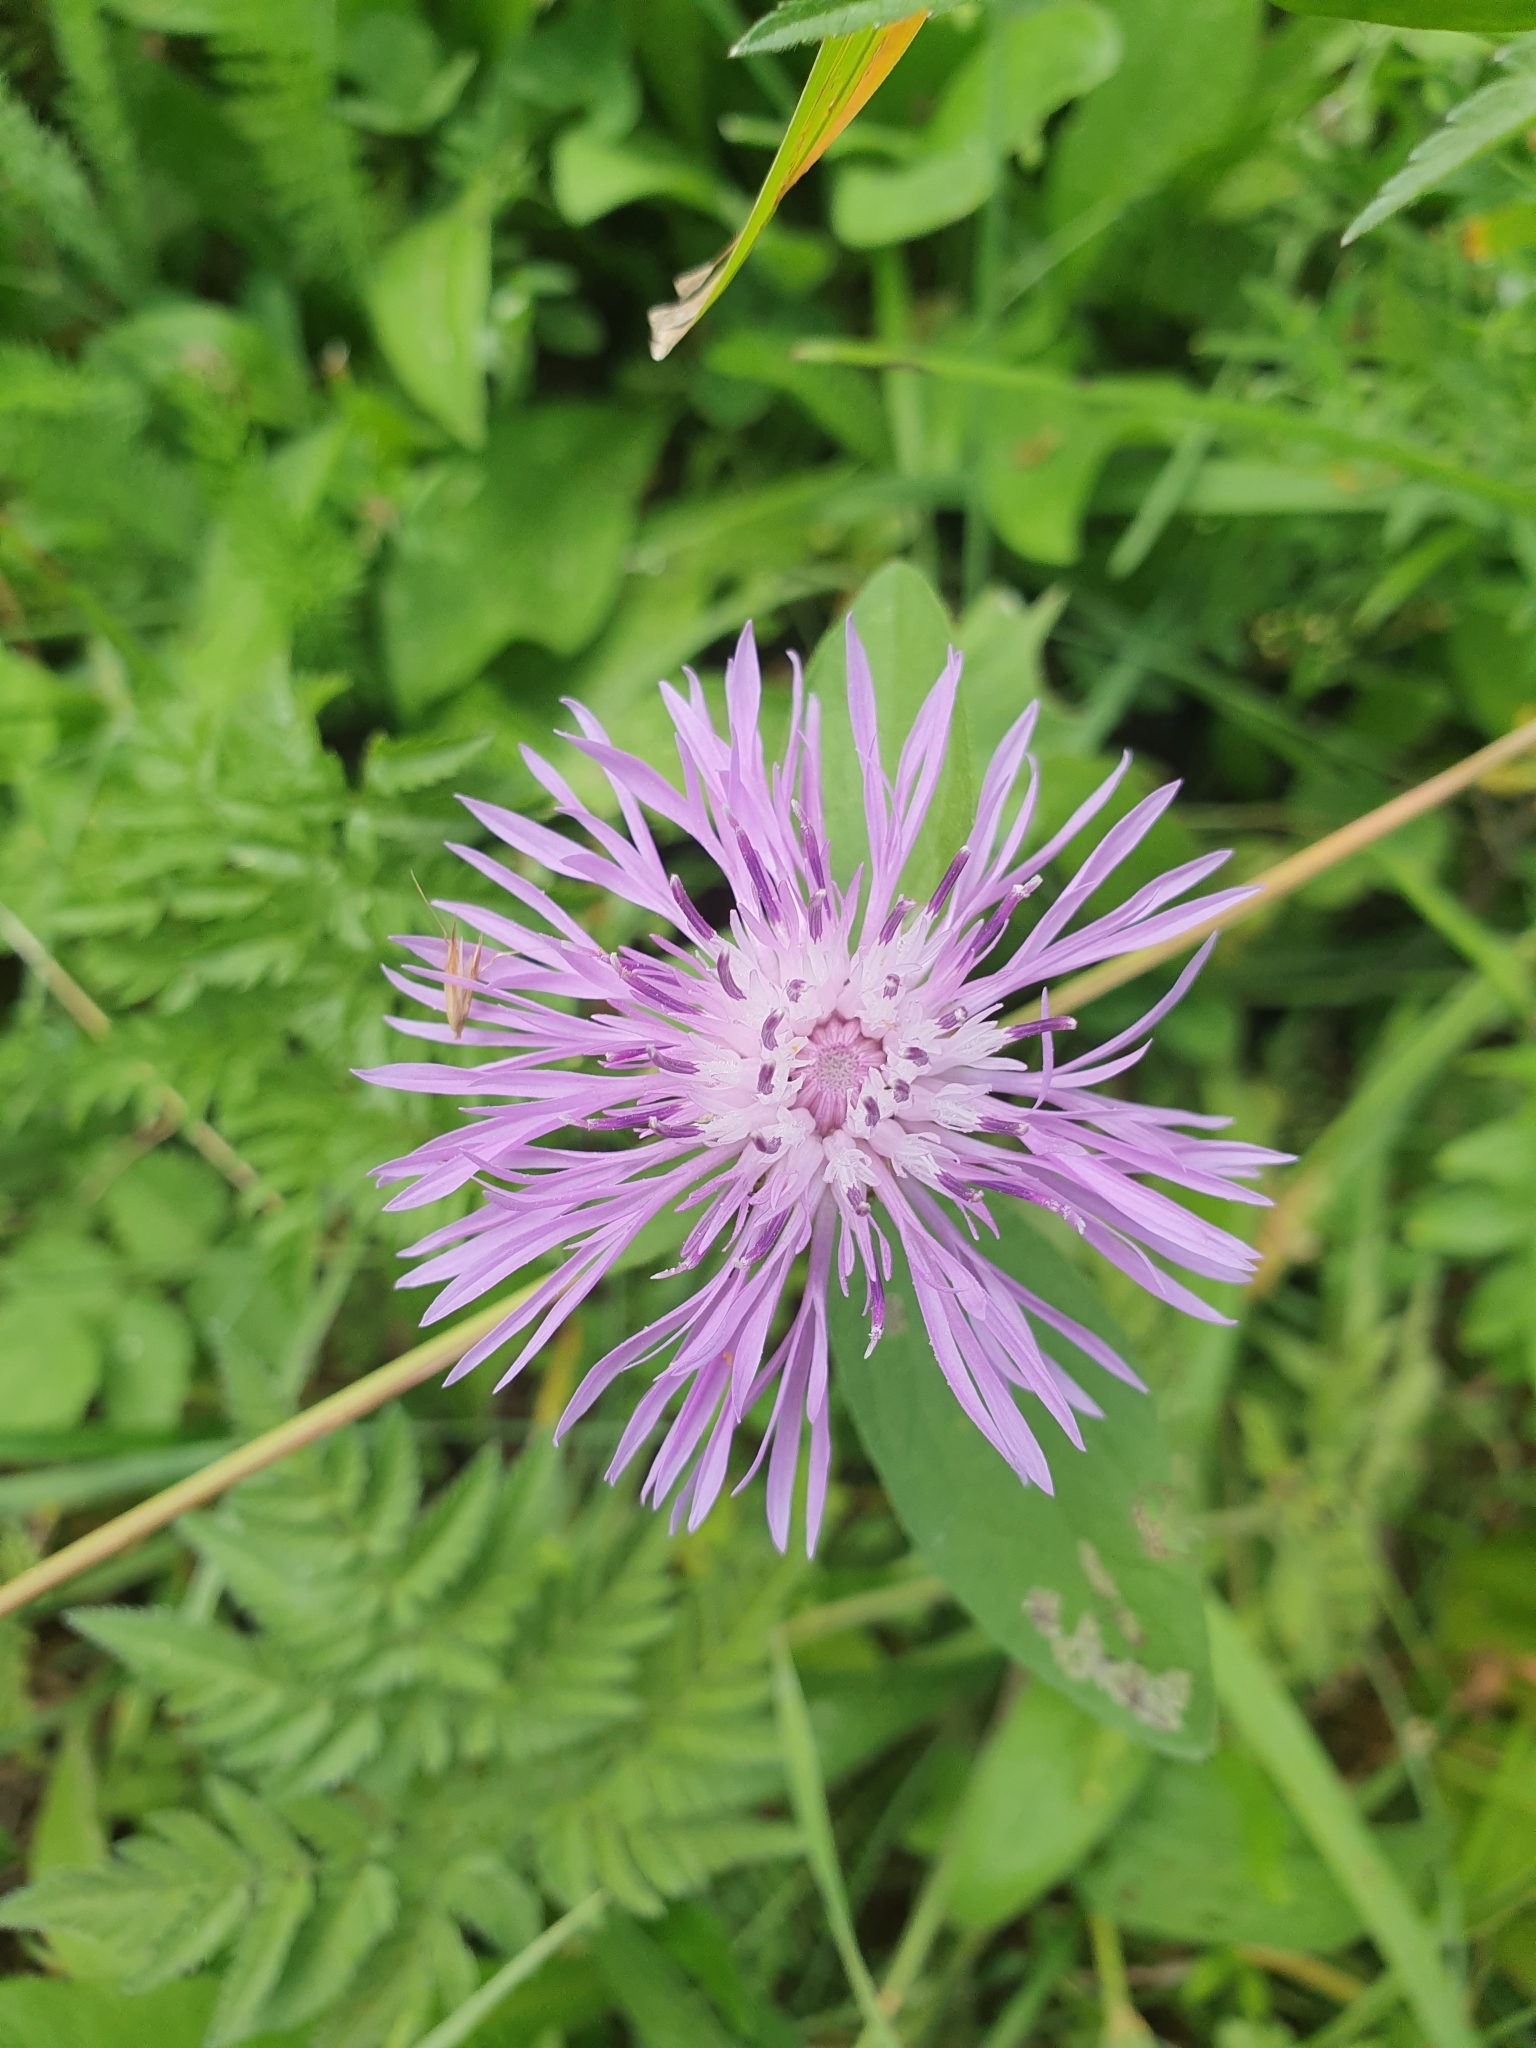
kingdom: Plantae
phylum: Tracheophyta
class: Magnoliopsida
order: Asterales
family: Asteraceae
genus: Centaurea
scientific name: Centaurea jacea
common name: Brown knapweed
